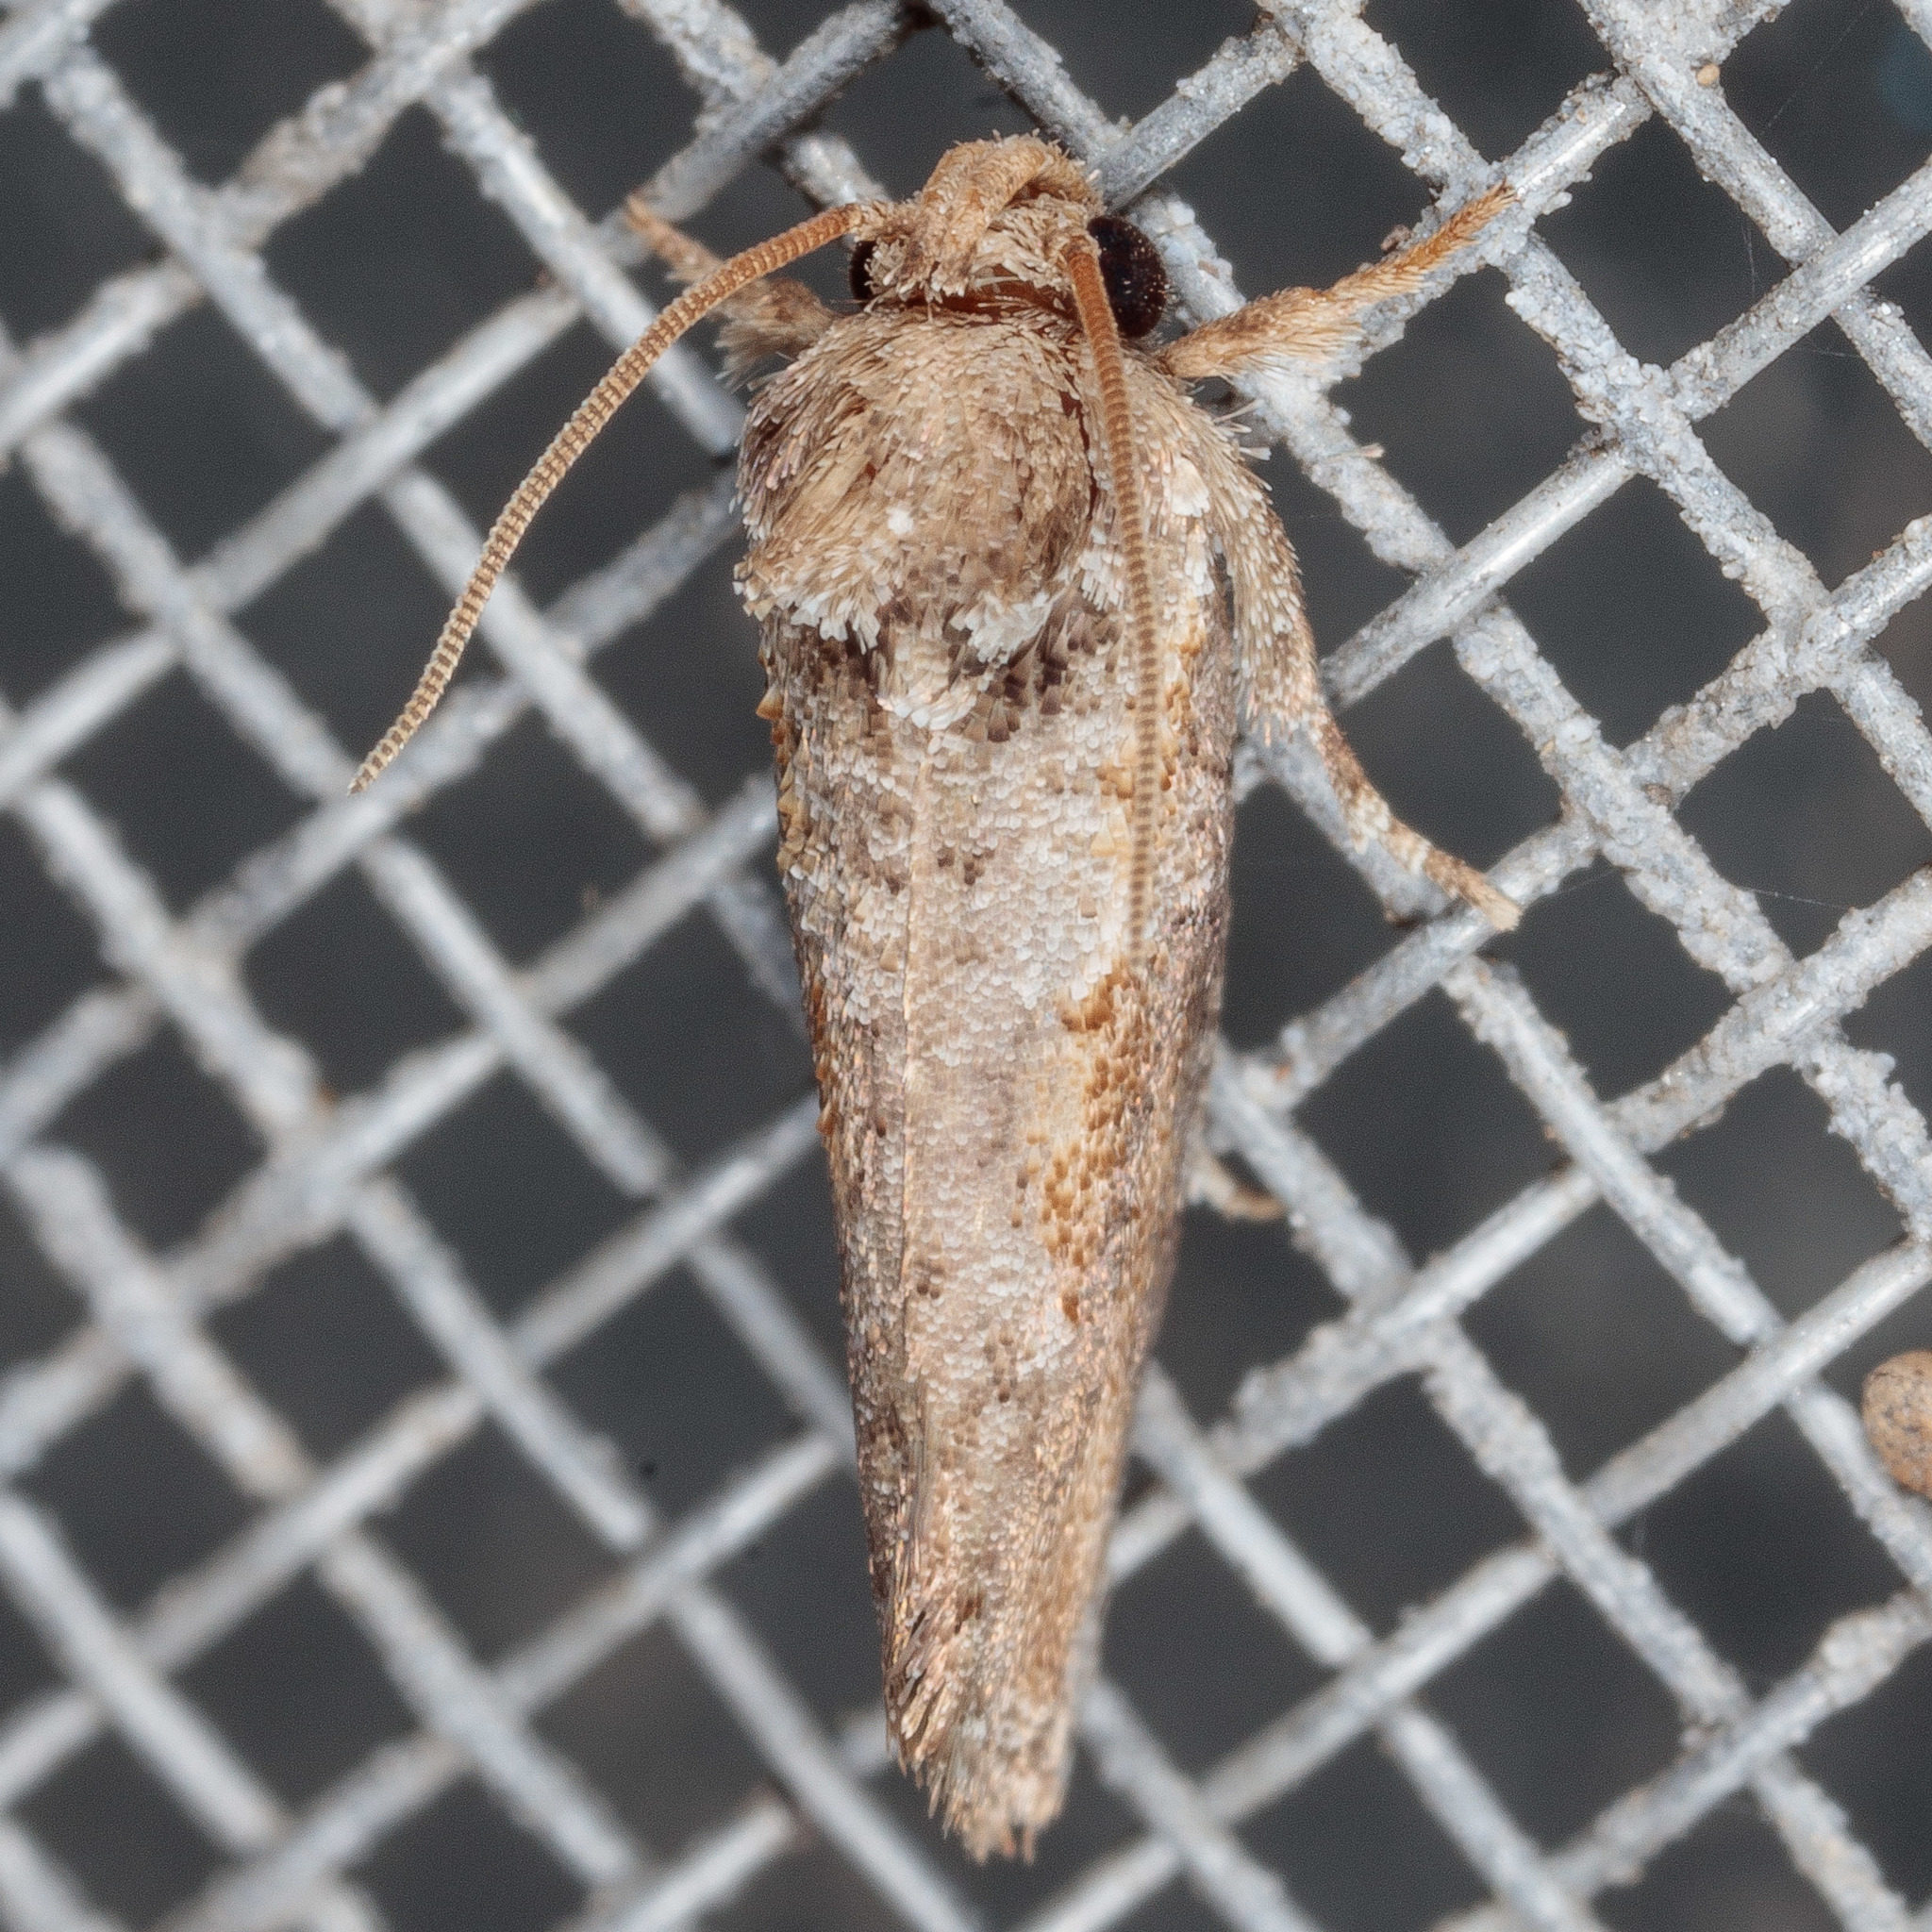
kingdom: Animalia
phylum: Arthropoda
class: Insecta
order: Lepidoptera
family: Tineidae
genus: Acrolophus
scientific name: Acrolophus piger
